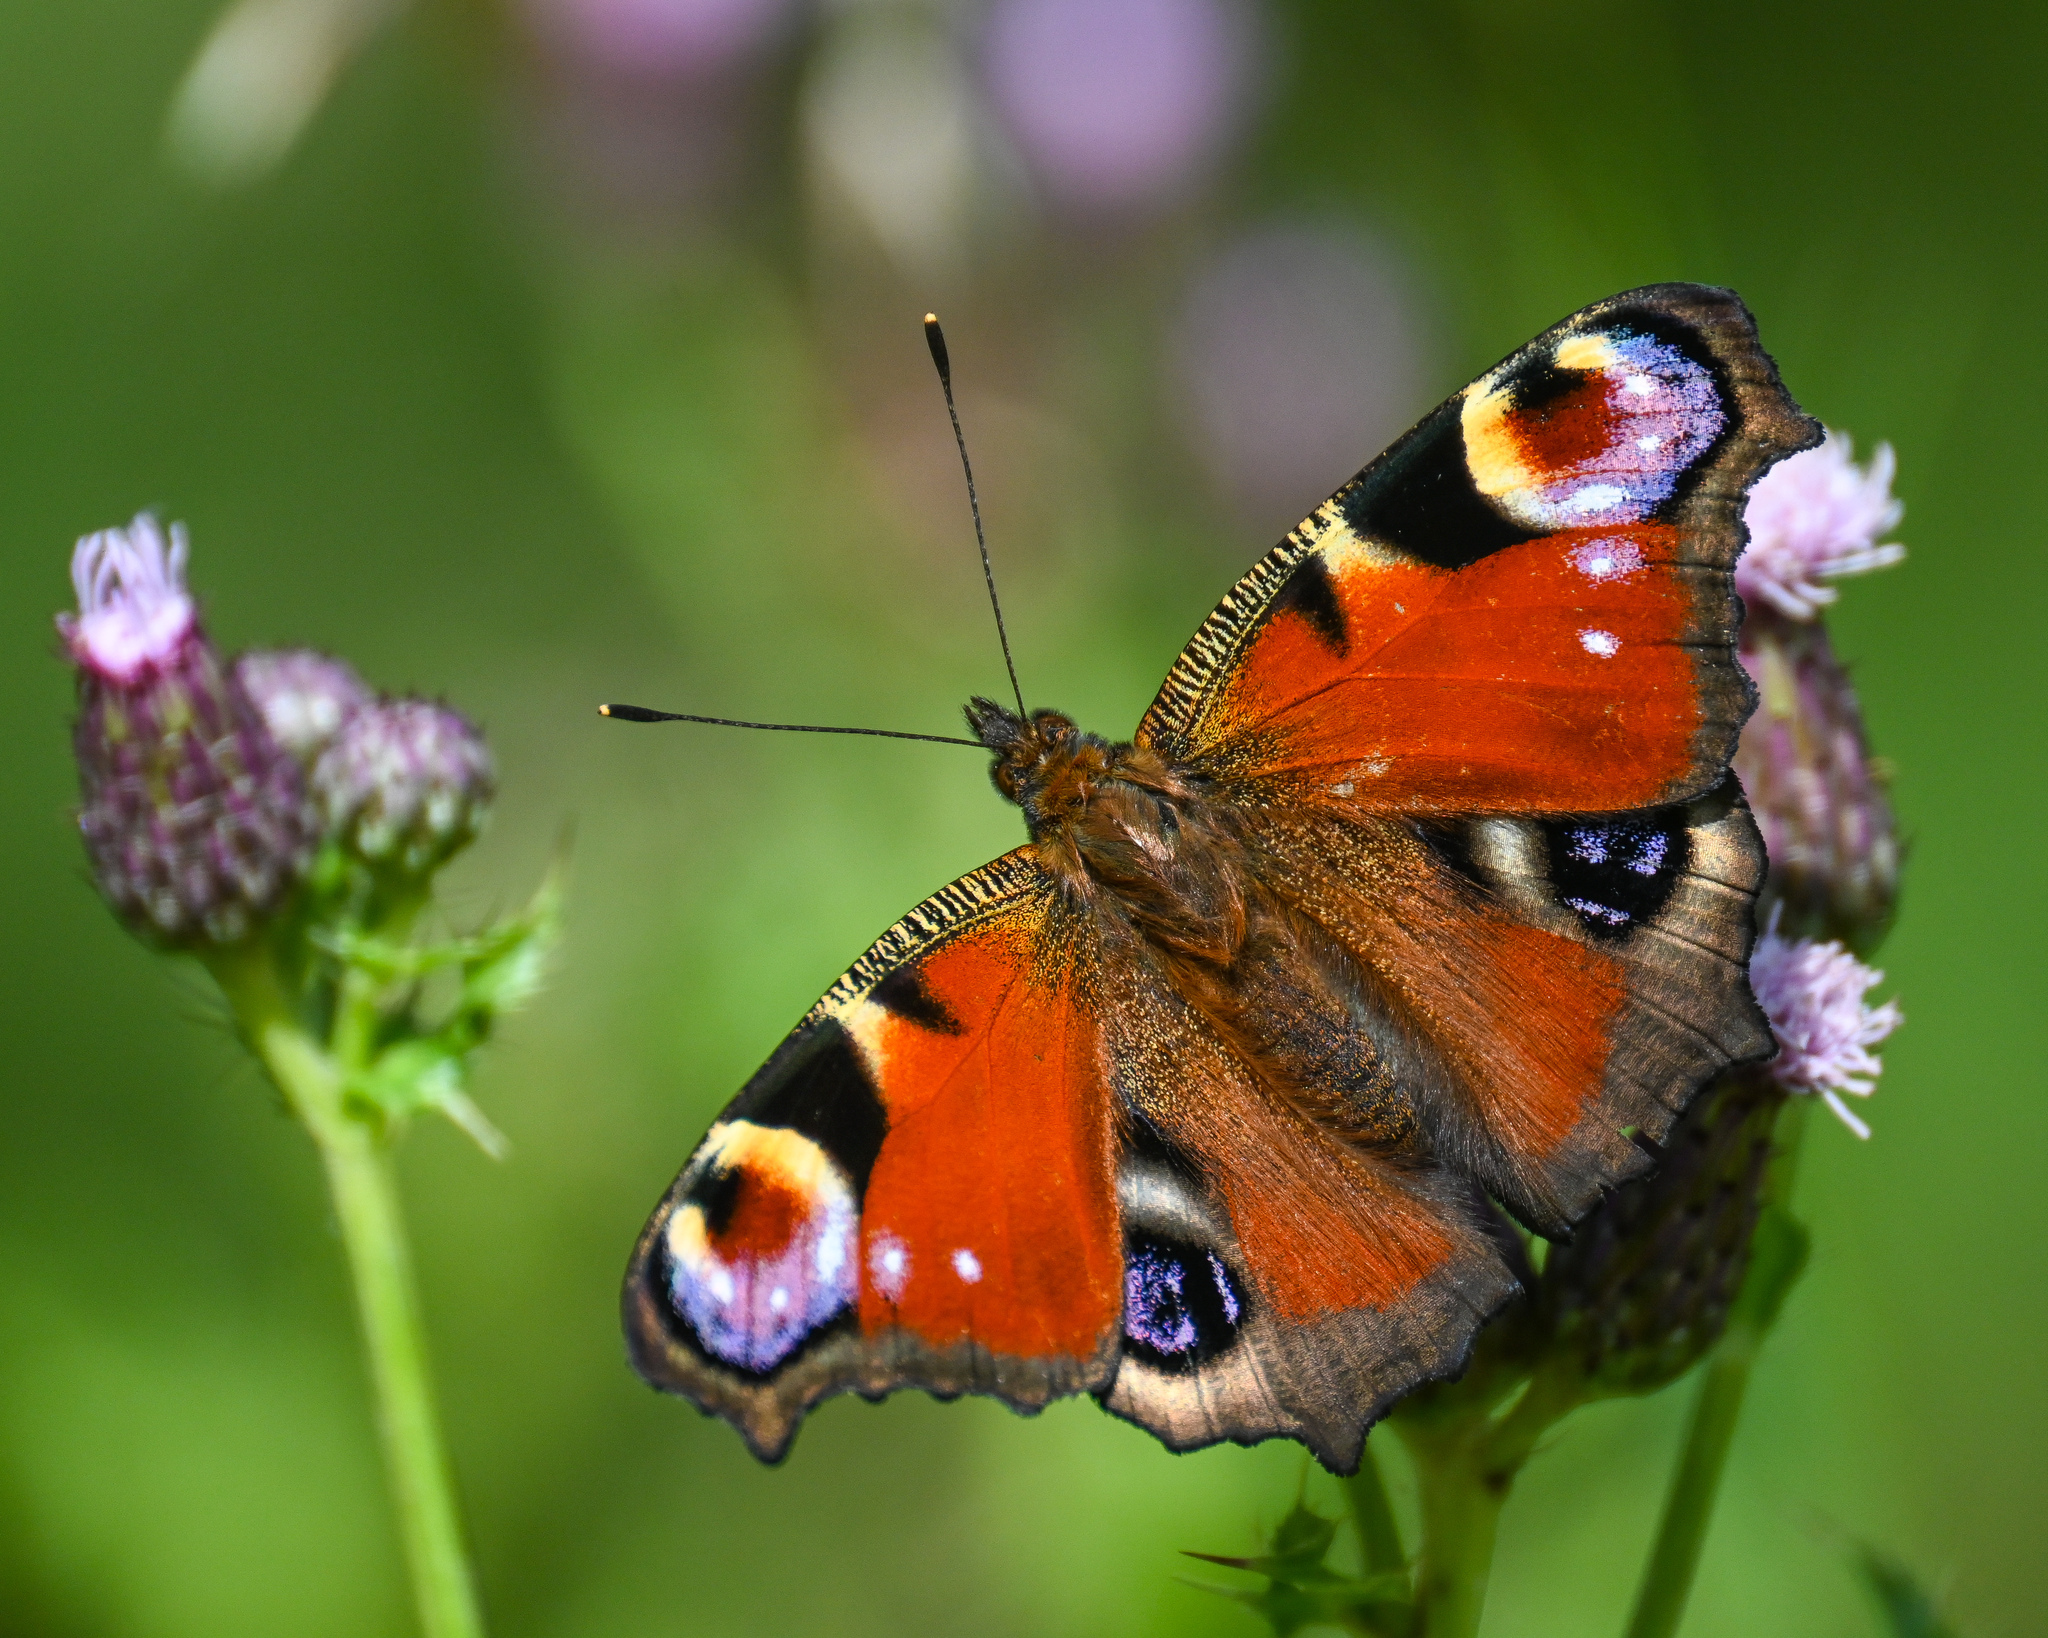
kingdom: Animalia
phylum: Arthropoda
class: Insecta
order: Lepidoptera
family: Nymphalidae
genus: Aglais
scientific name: Aglais io
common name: Peacock
